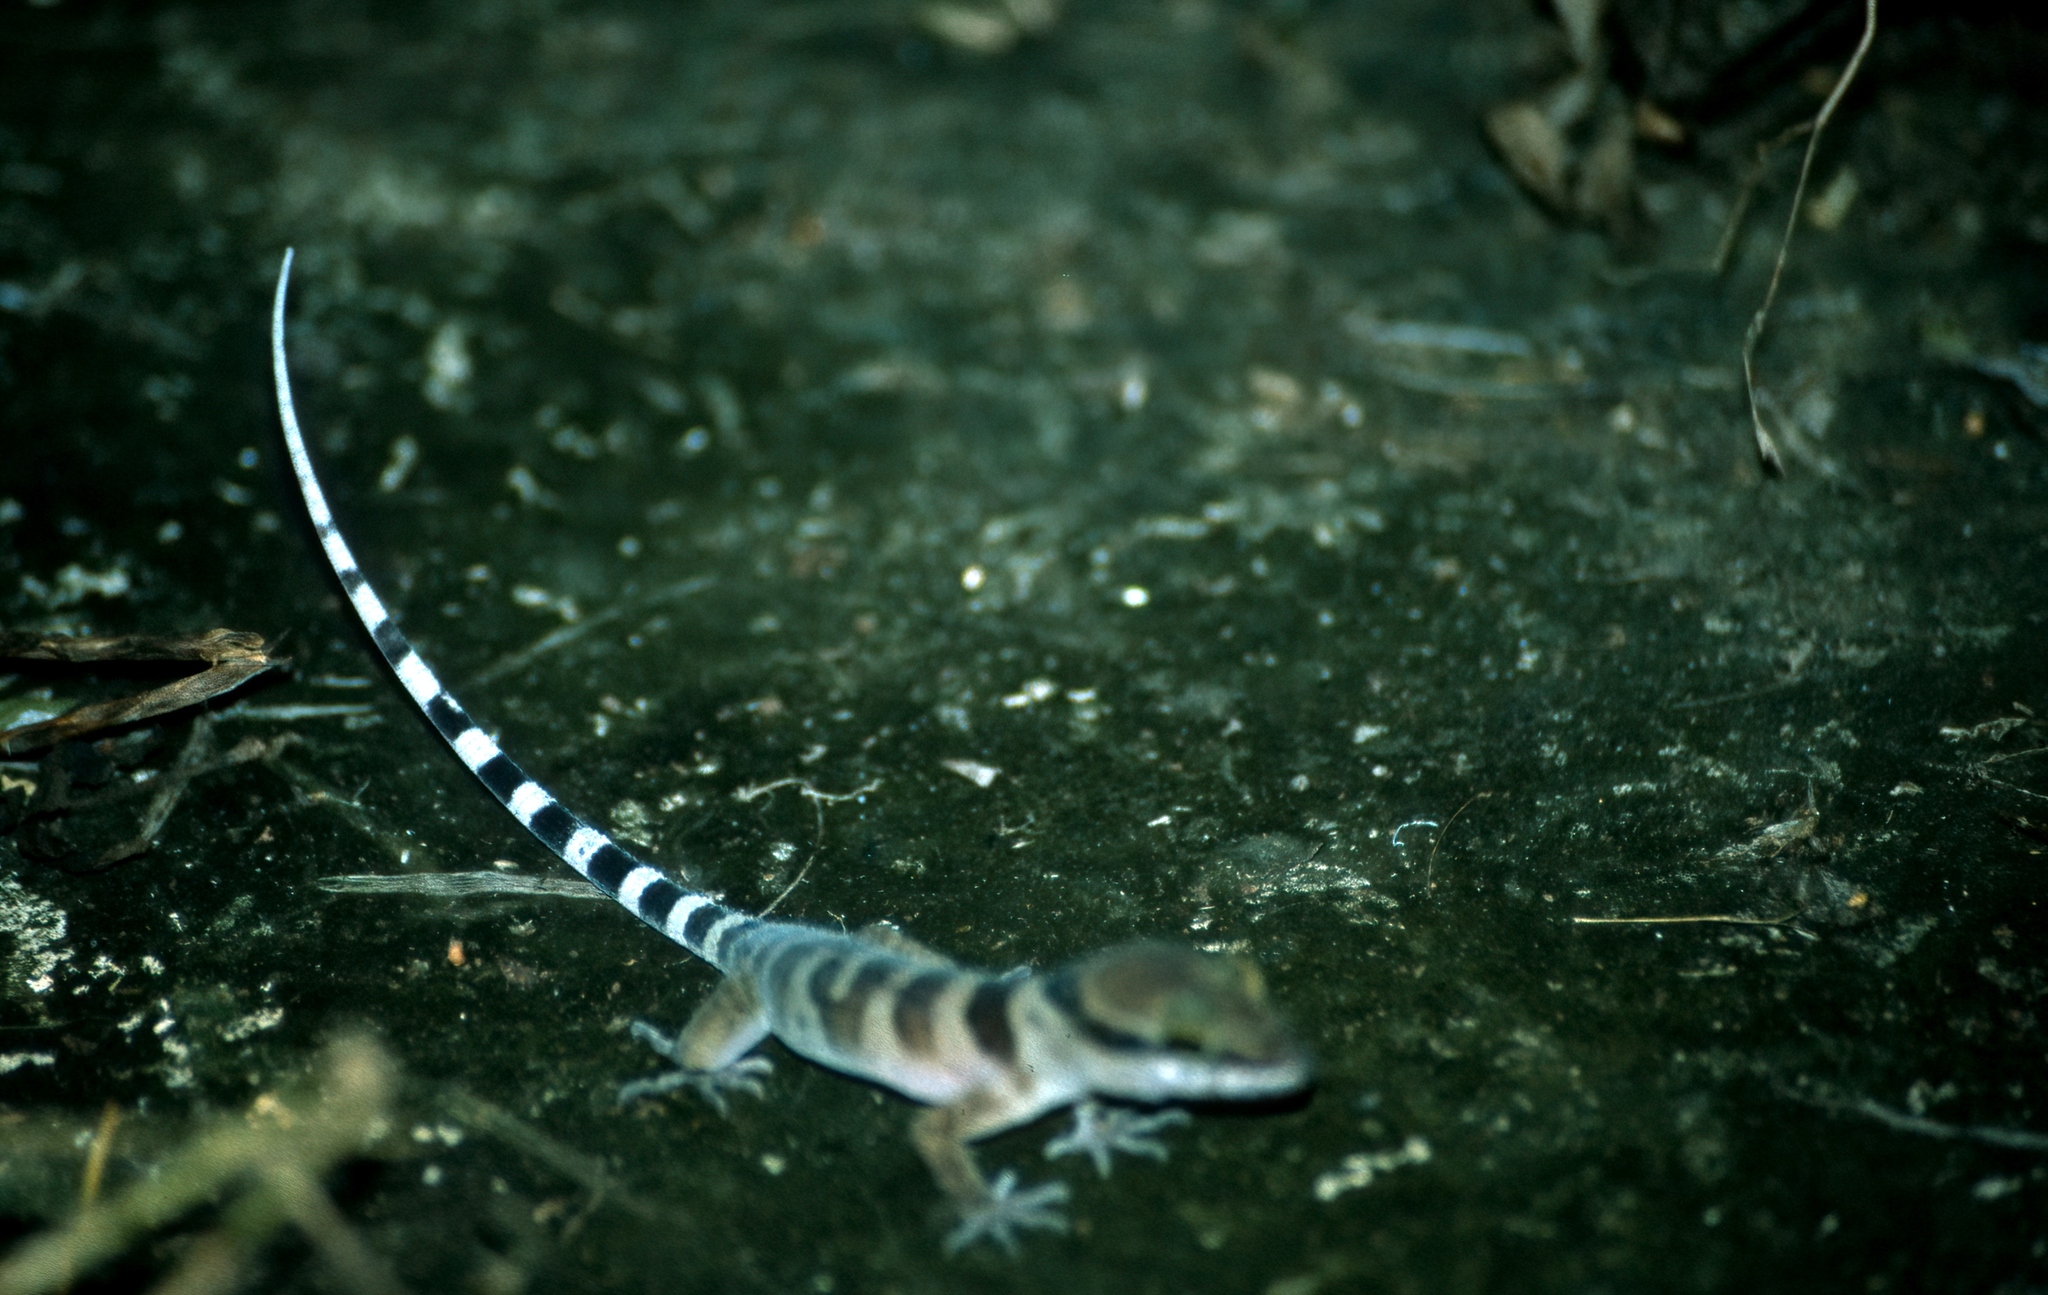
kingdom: Animalia
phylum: Chordata
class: Squamata
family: Gekkonidae
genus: Cyrtodactylus
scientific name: Cyrtodactylus tuberculatus
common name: Cooktown ring-tailed gecko
